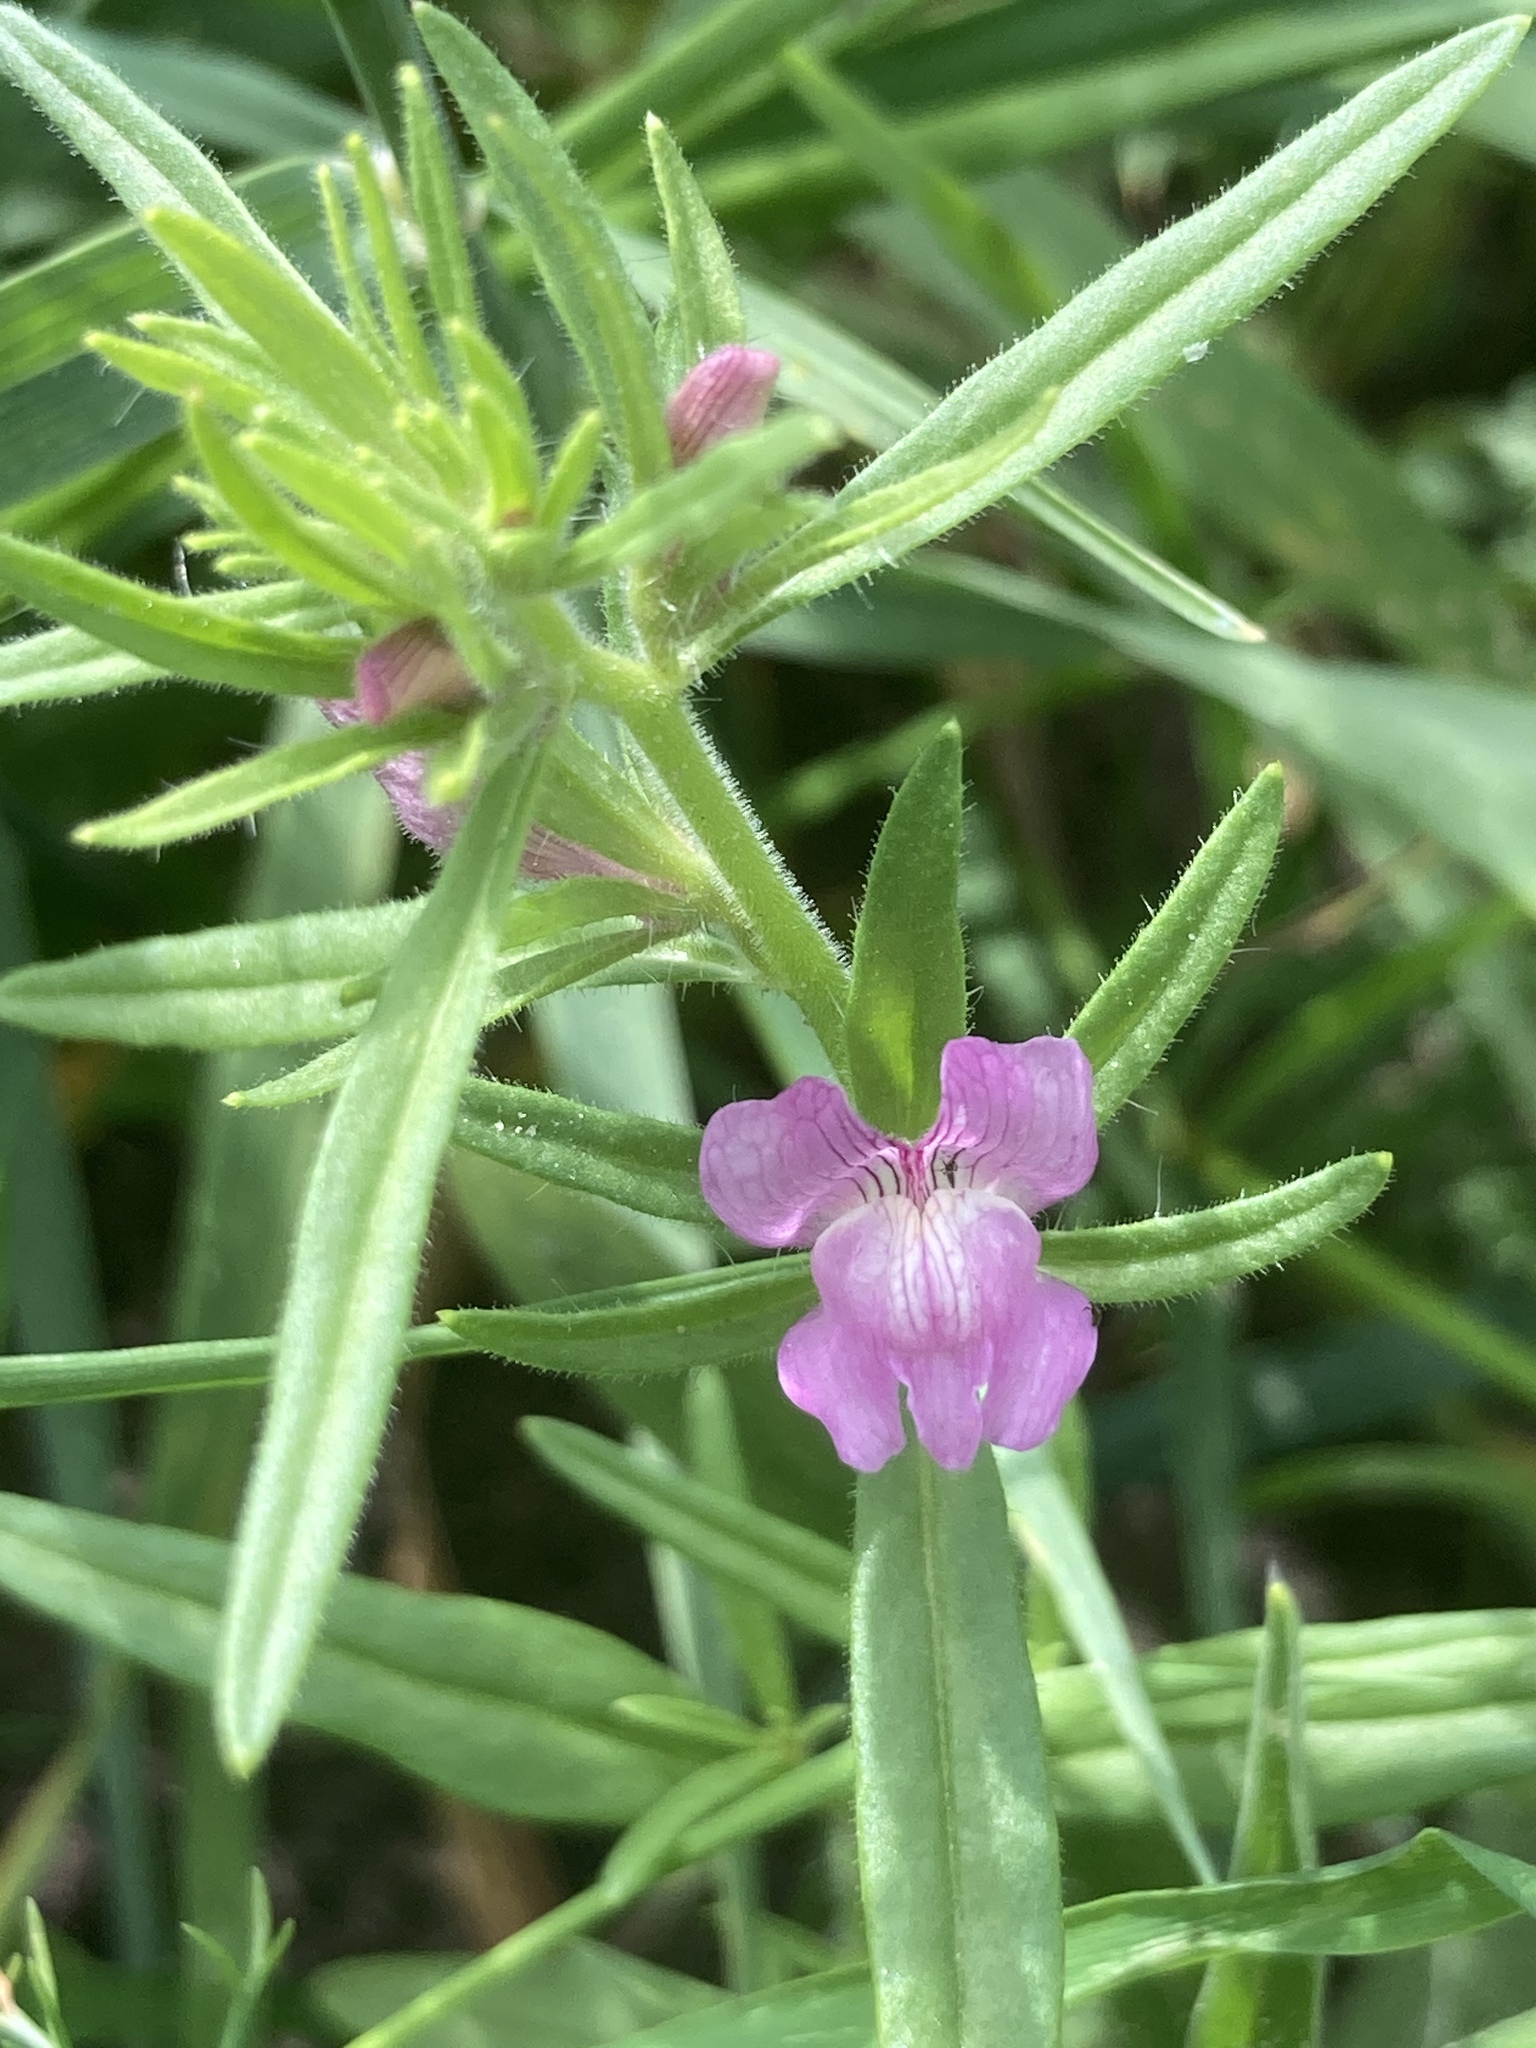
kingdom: Plantae
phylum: Tracheophyta
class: Magnoliopsida
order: Lamiales
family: Plantaginaceae
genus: Misopates
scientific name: Misopates orontium
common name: Weasel's-snout
